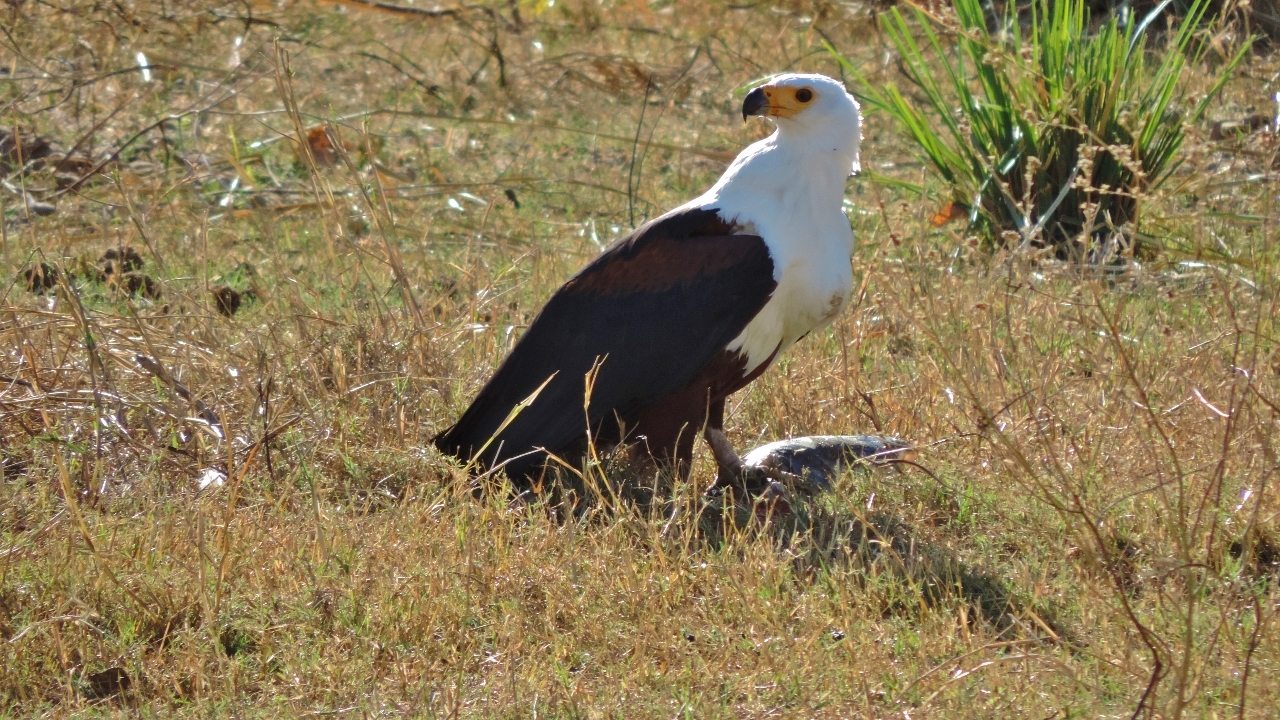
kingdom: Animalia
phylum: Chordata
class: Aves
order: Accipitriformes
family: Accipitridae
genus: Haliaeetus
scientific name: Haliaeetus vocifer
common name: African fish eagle
